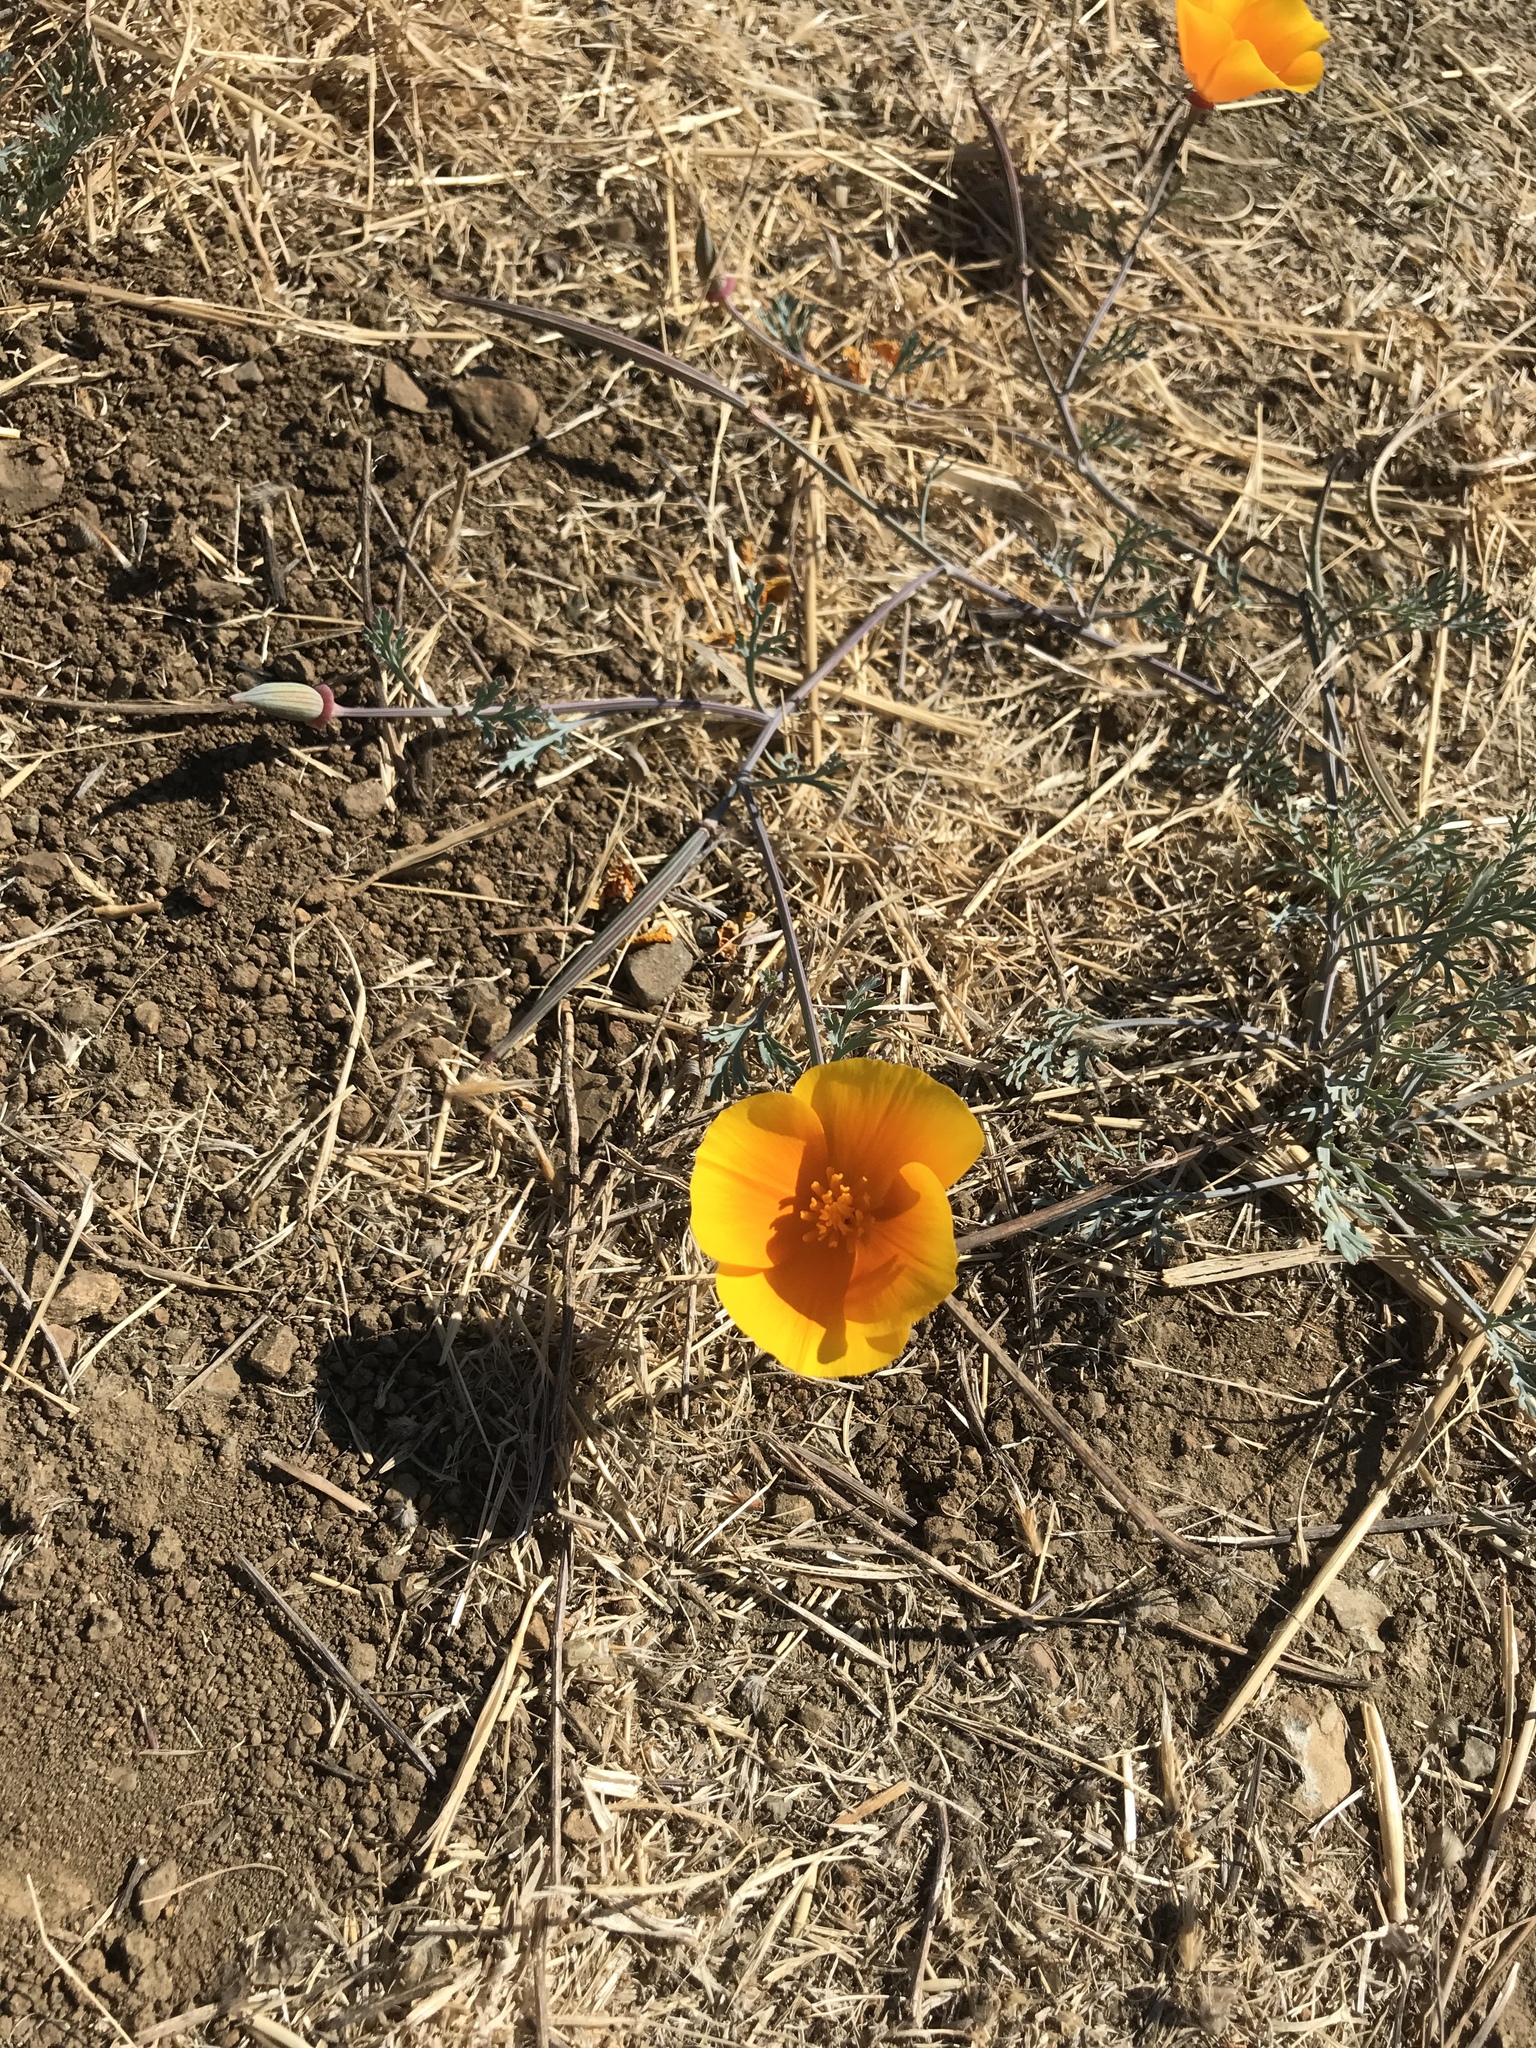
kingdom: Plantae
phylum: Tracheophyta
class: Magnoliopsida
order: Ranunculales
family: Papaveraceae
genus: Eschscholzia
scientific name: Eschscholzia californica
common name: California poppy
